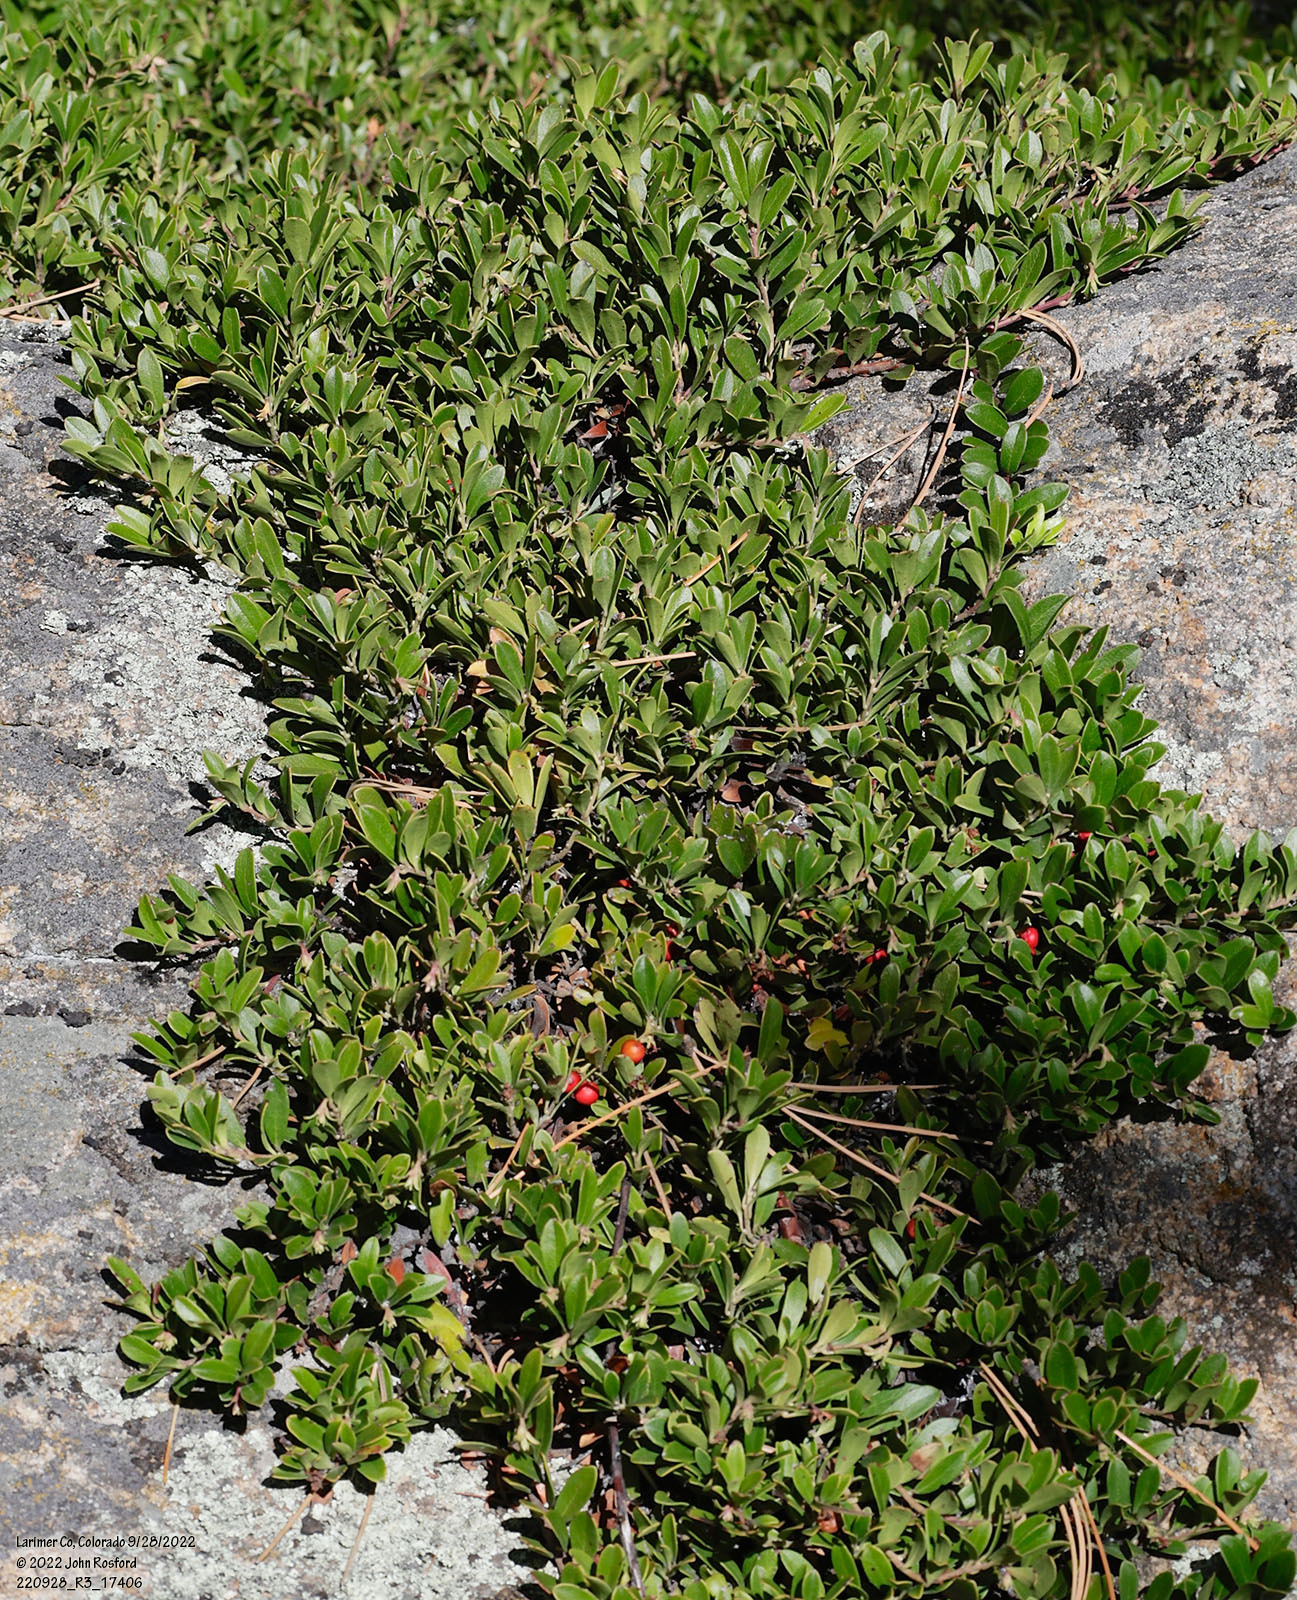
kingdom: Plantae
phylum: Tracheophyta
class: Magnoliopsida
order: Ericales
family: Ericaceae
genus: Arctostaphylos
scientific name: Arctostaphylos uva-ursi
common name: Bearberry
